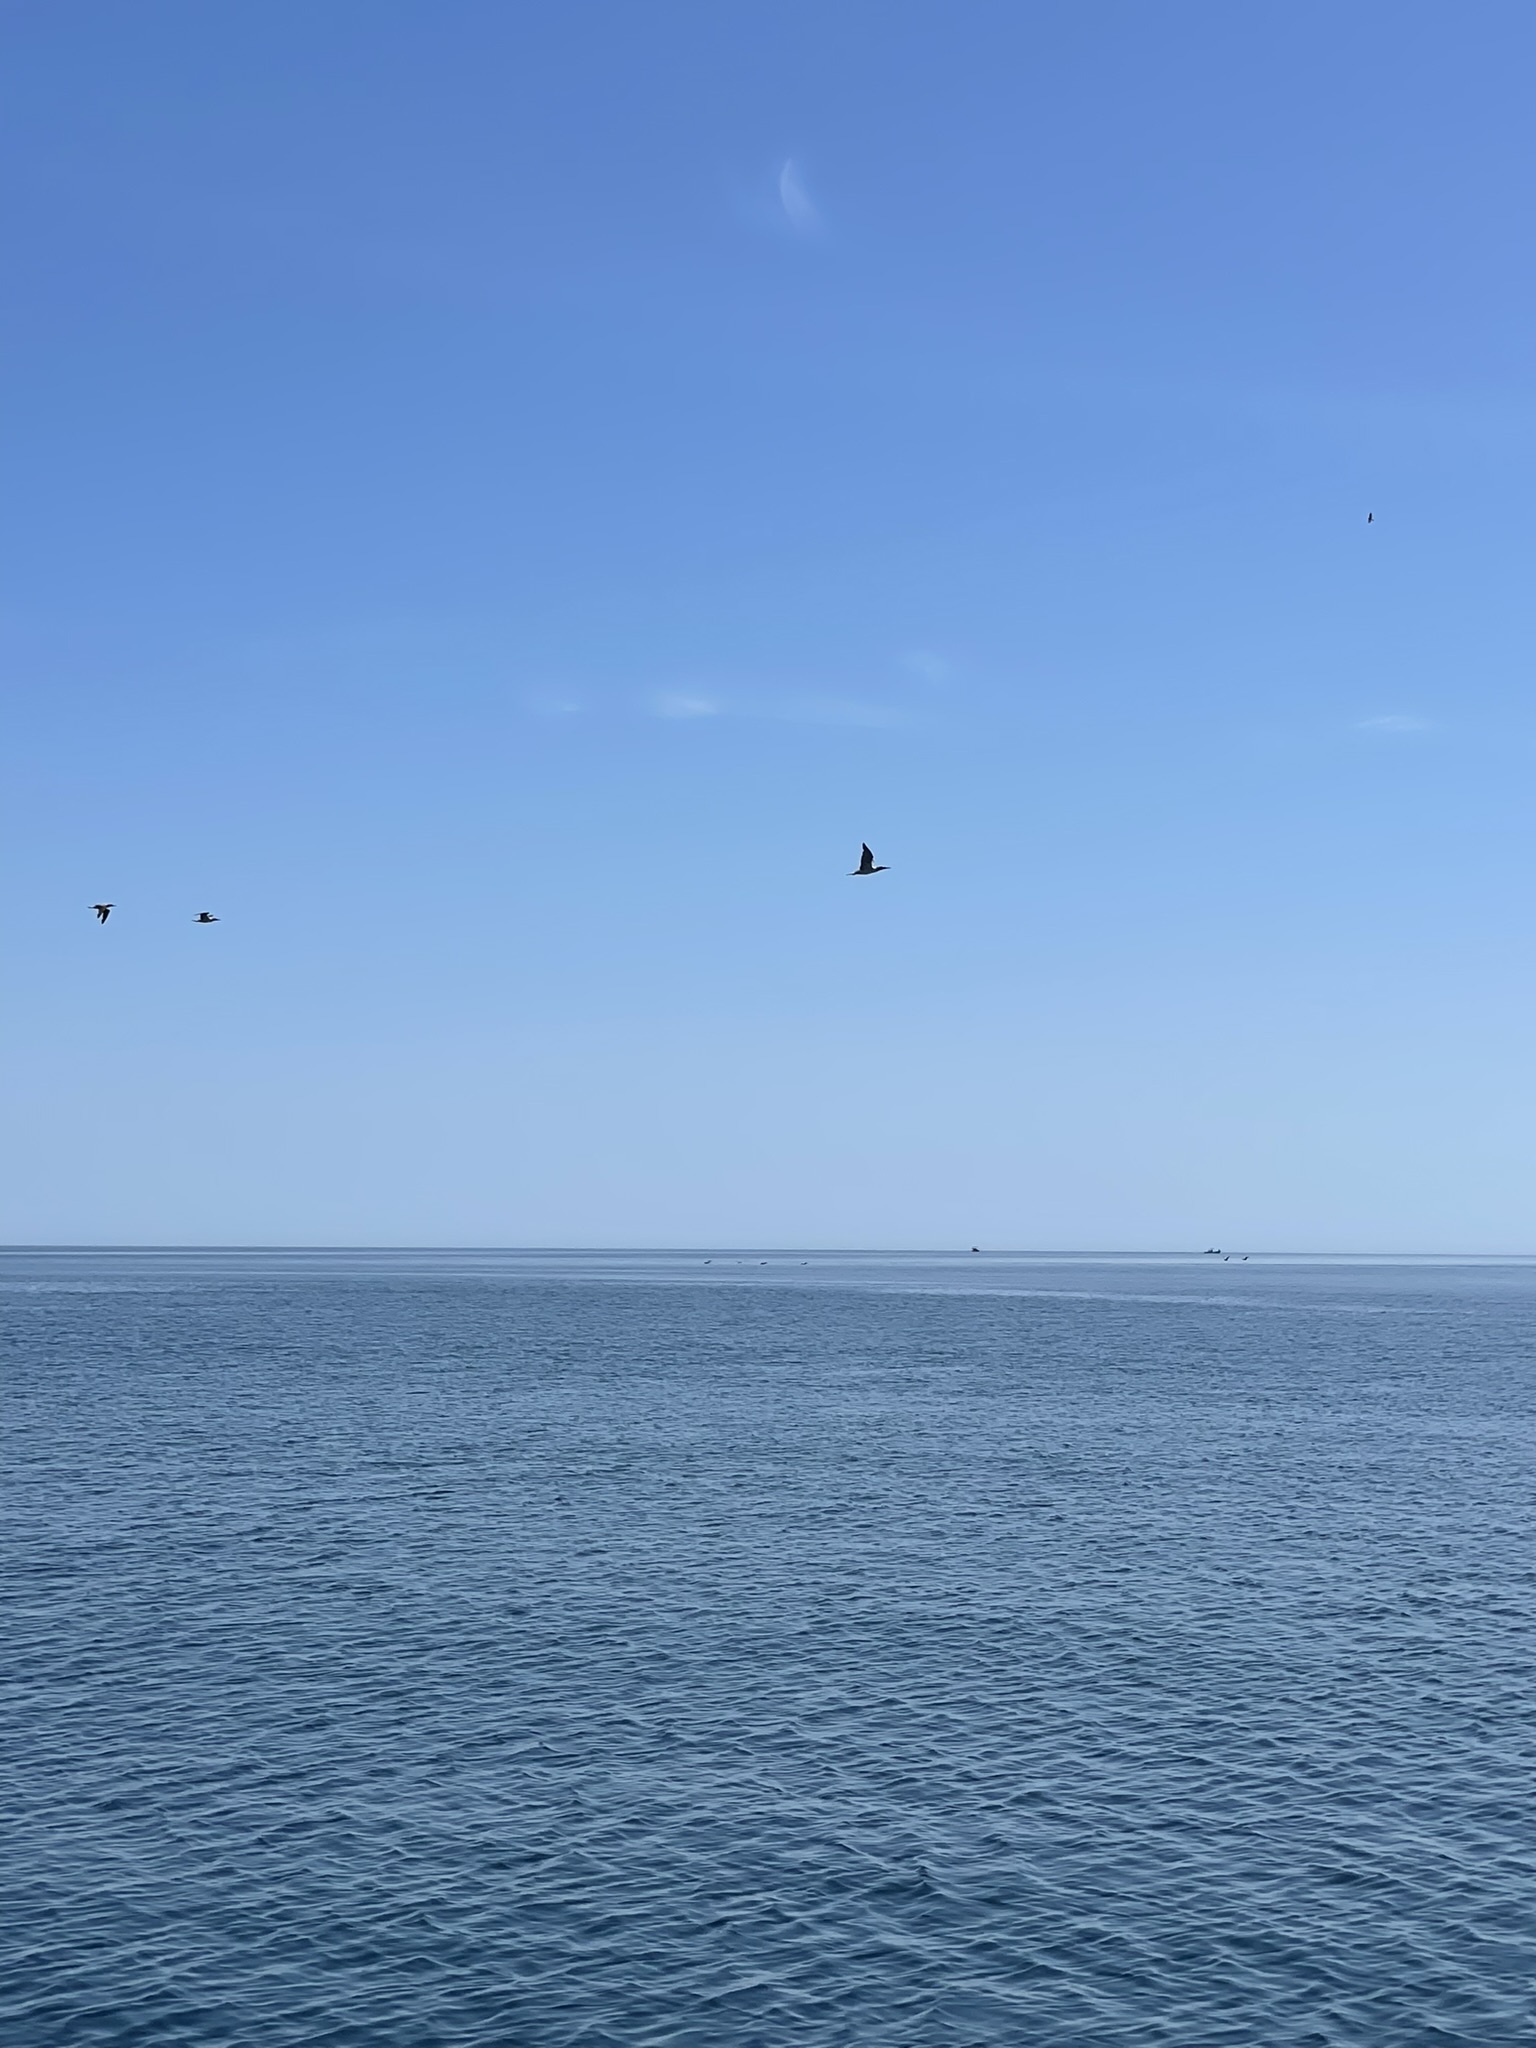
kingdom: Animalia
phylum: Chordata
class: Aves
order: Suliformes
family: Sulidae
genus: Sula
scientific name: Sula nebouxii
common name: Blue-footed booby
